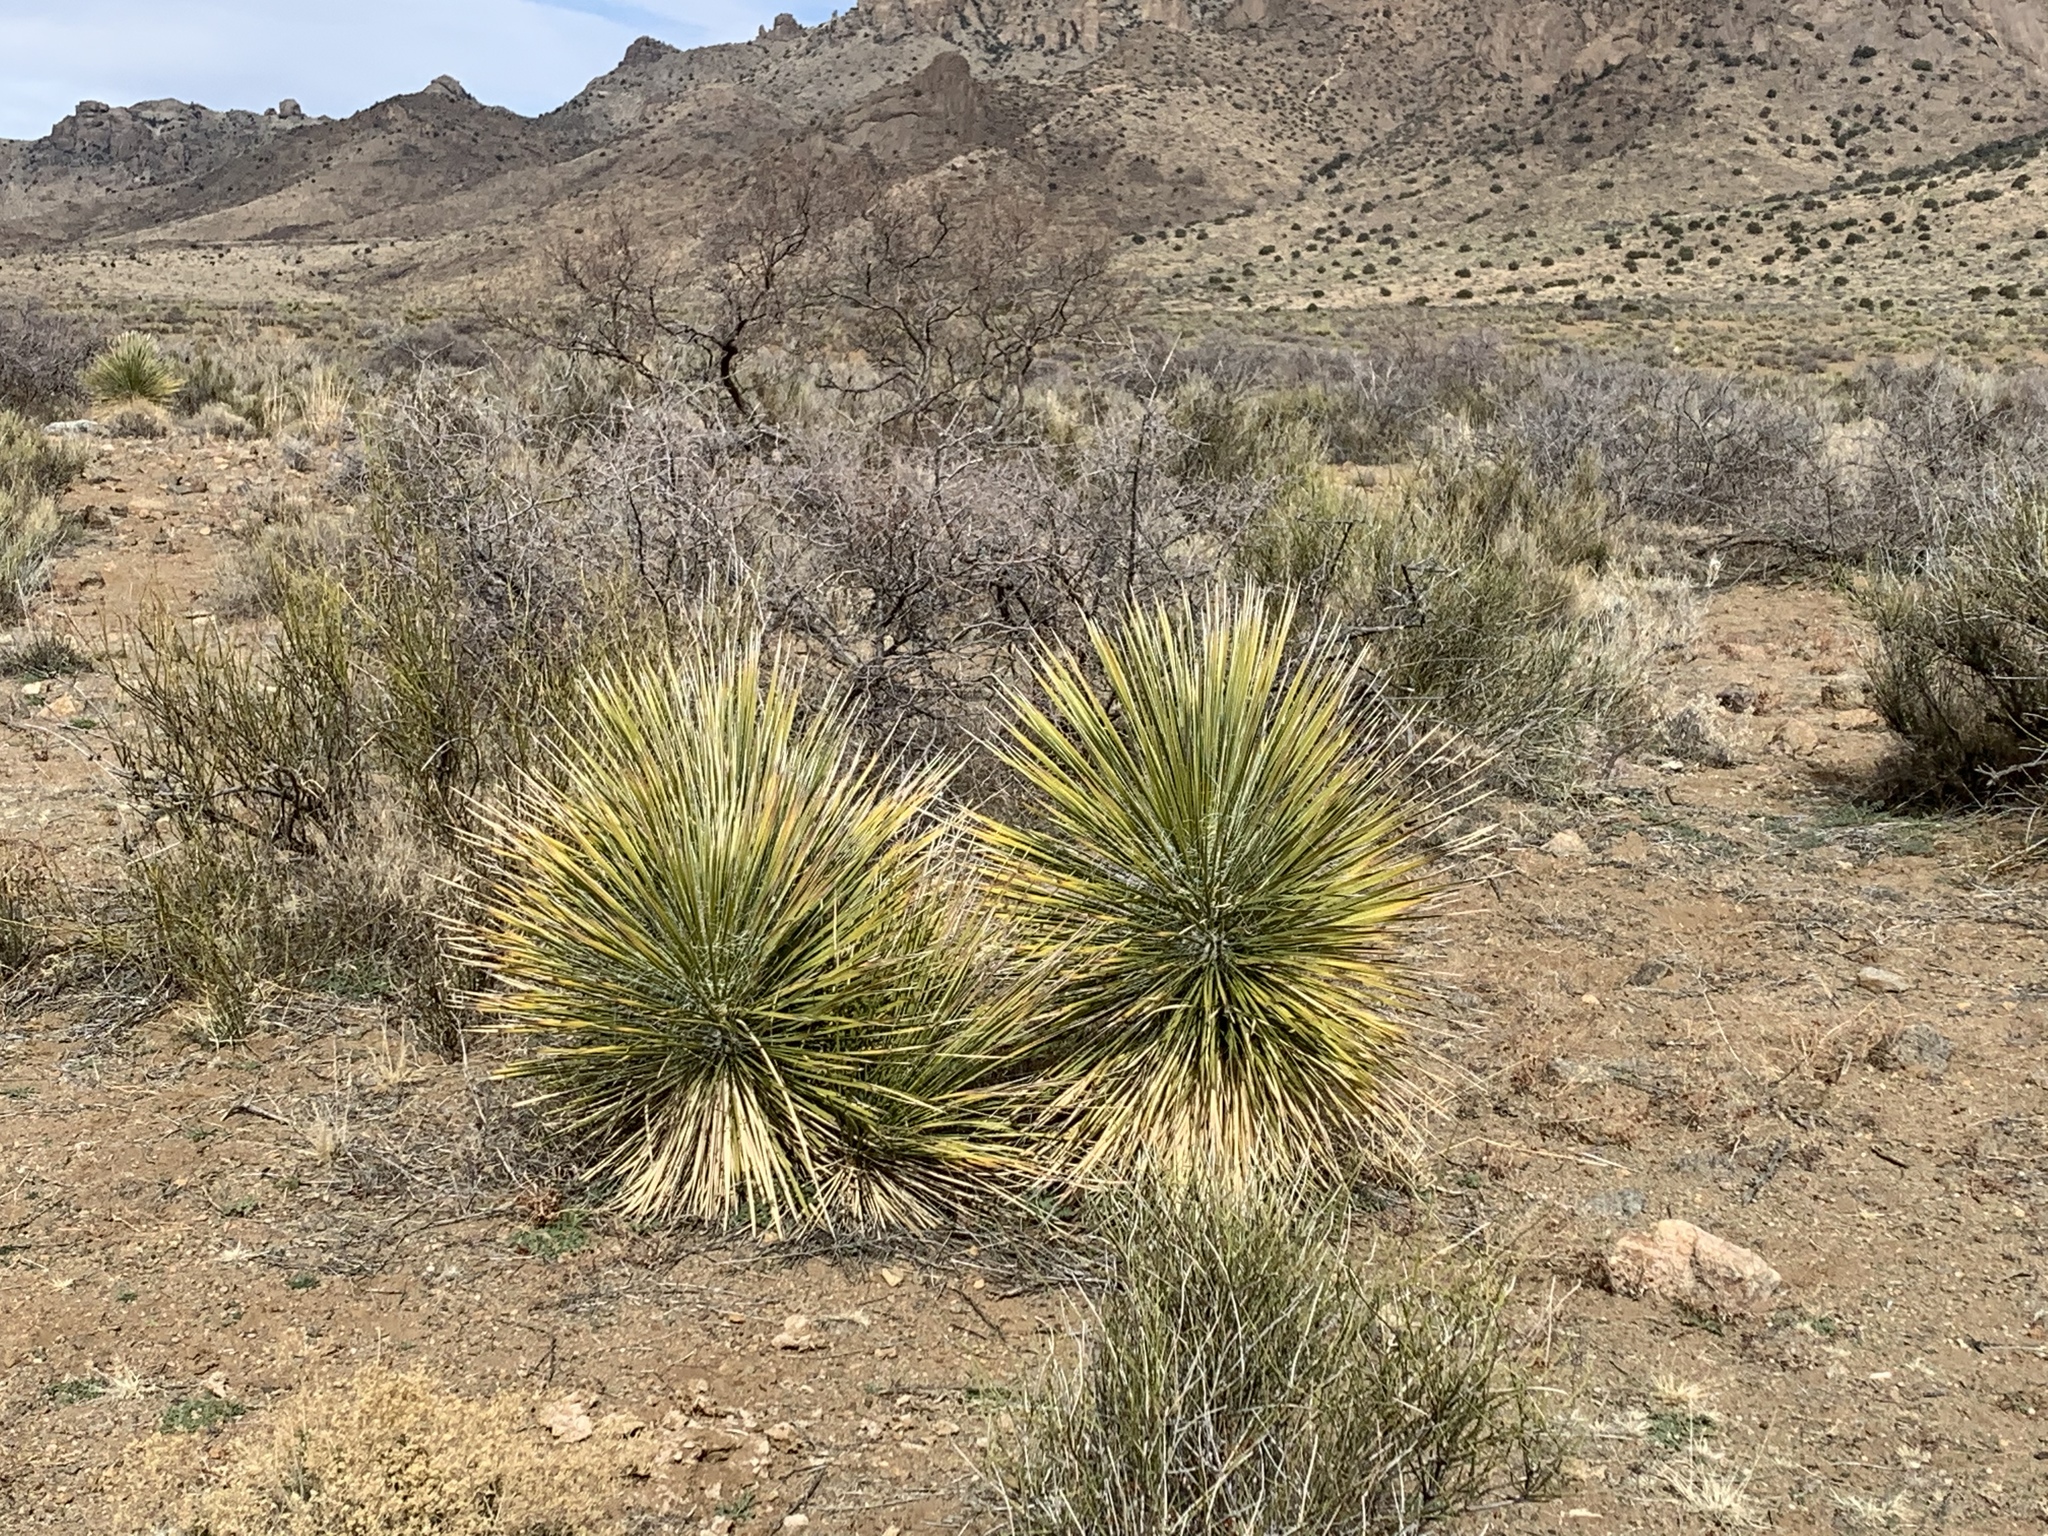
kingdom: Plantae
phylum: Tracheophyta
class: Liliopsida
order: Asparagales
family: Asparagaceae
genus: Yucca
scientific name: Yucca elata
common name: Palmella
